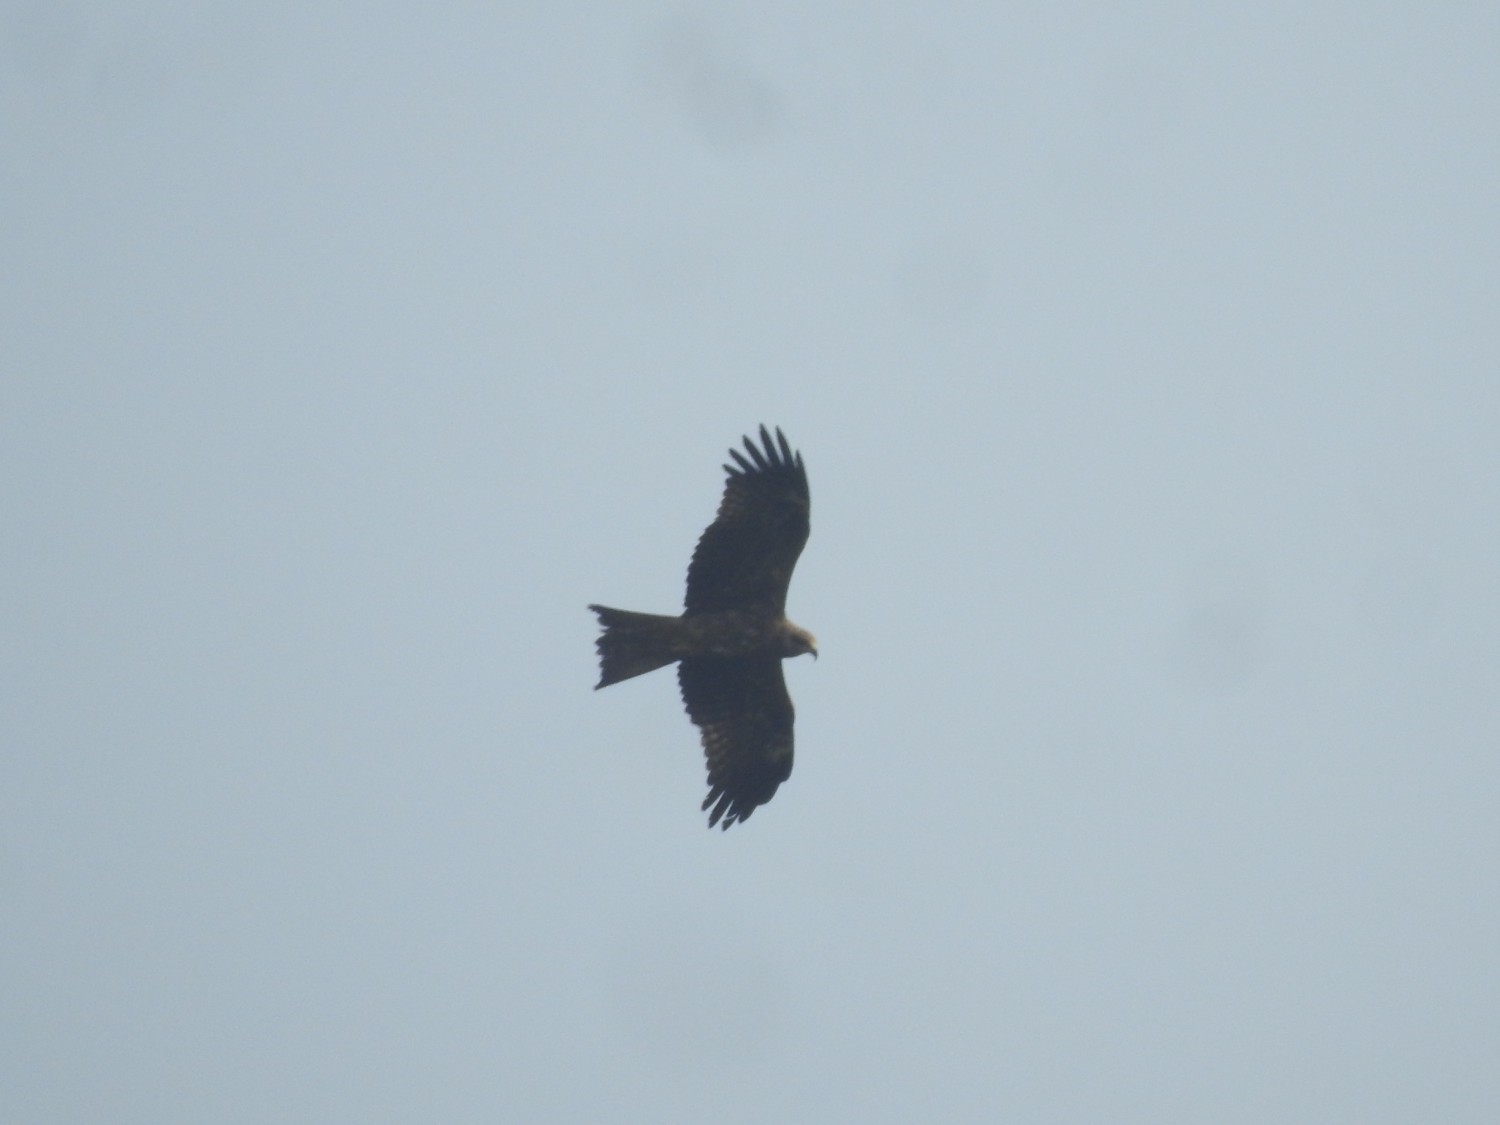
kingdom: Animalia
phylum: Chordata
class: Aves
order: Accipitriformes
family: Accipitridae
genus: Milvus
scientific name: Milvus migrans
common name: Black kite
